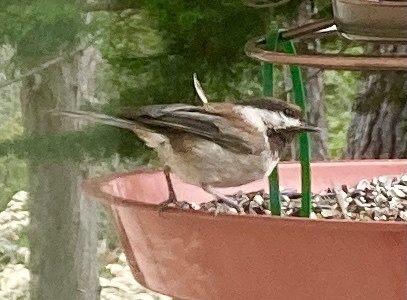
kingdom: Animalia
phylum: Chordata
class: Aves
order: Passeriformes
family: Paridae
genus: Poecile
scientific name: Poecile rufescens
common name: Chestnut-backed chickadee
